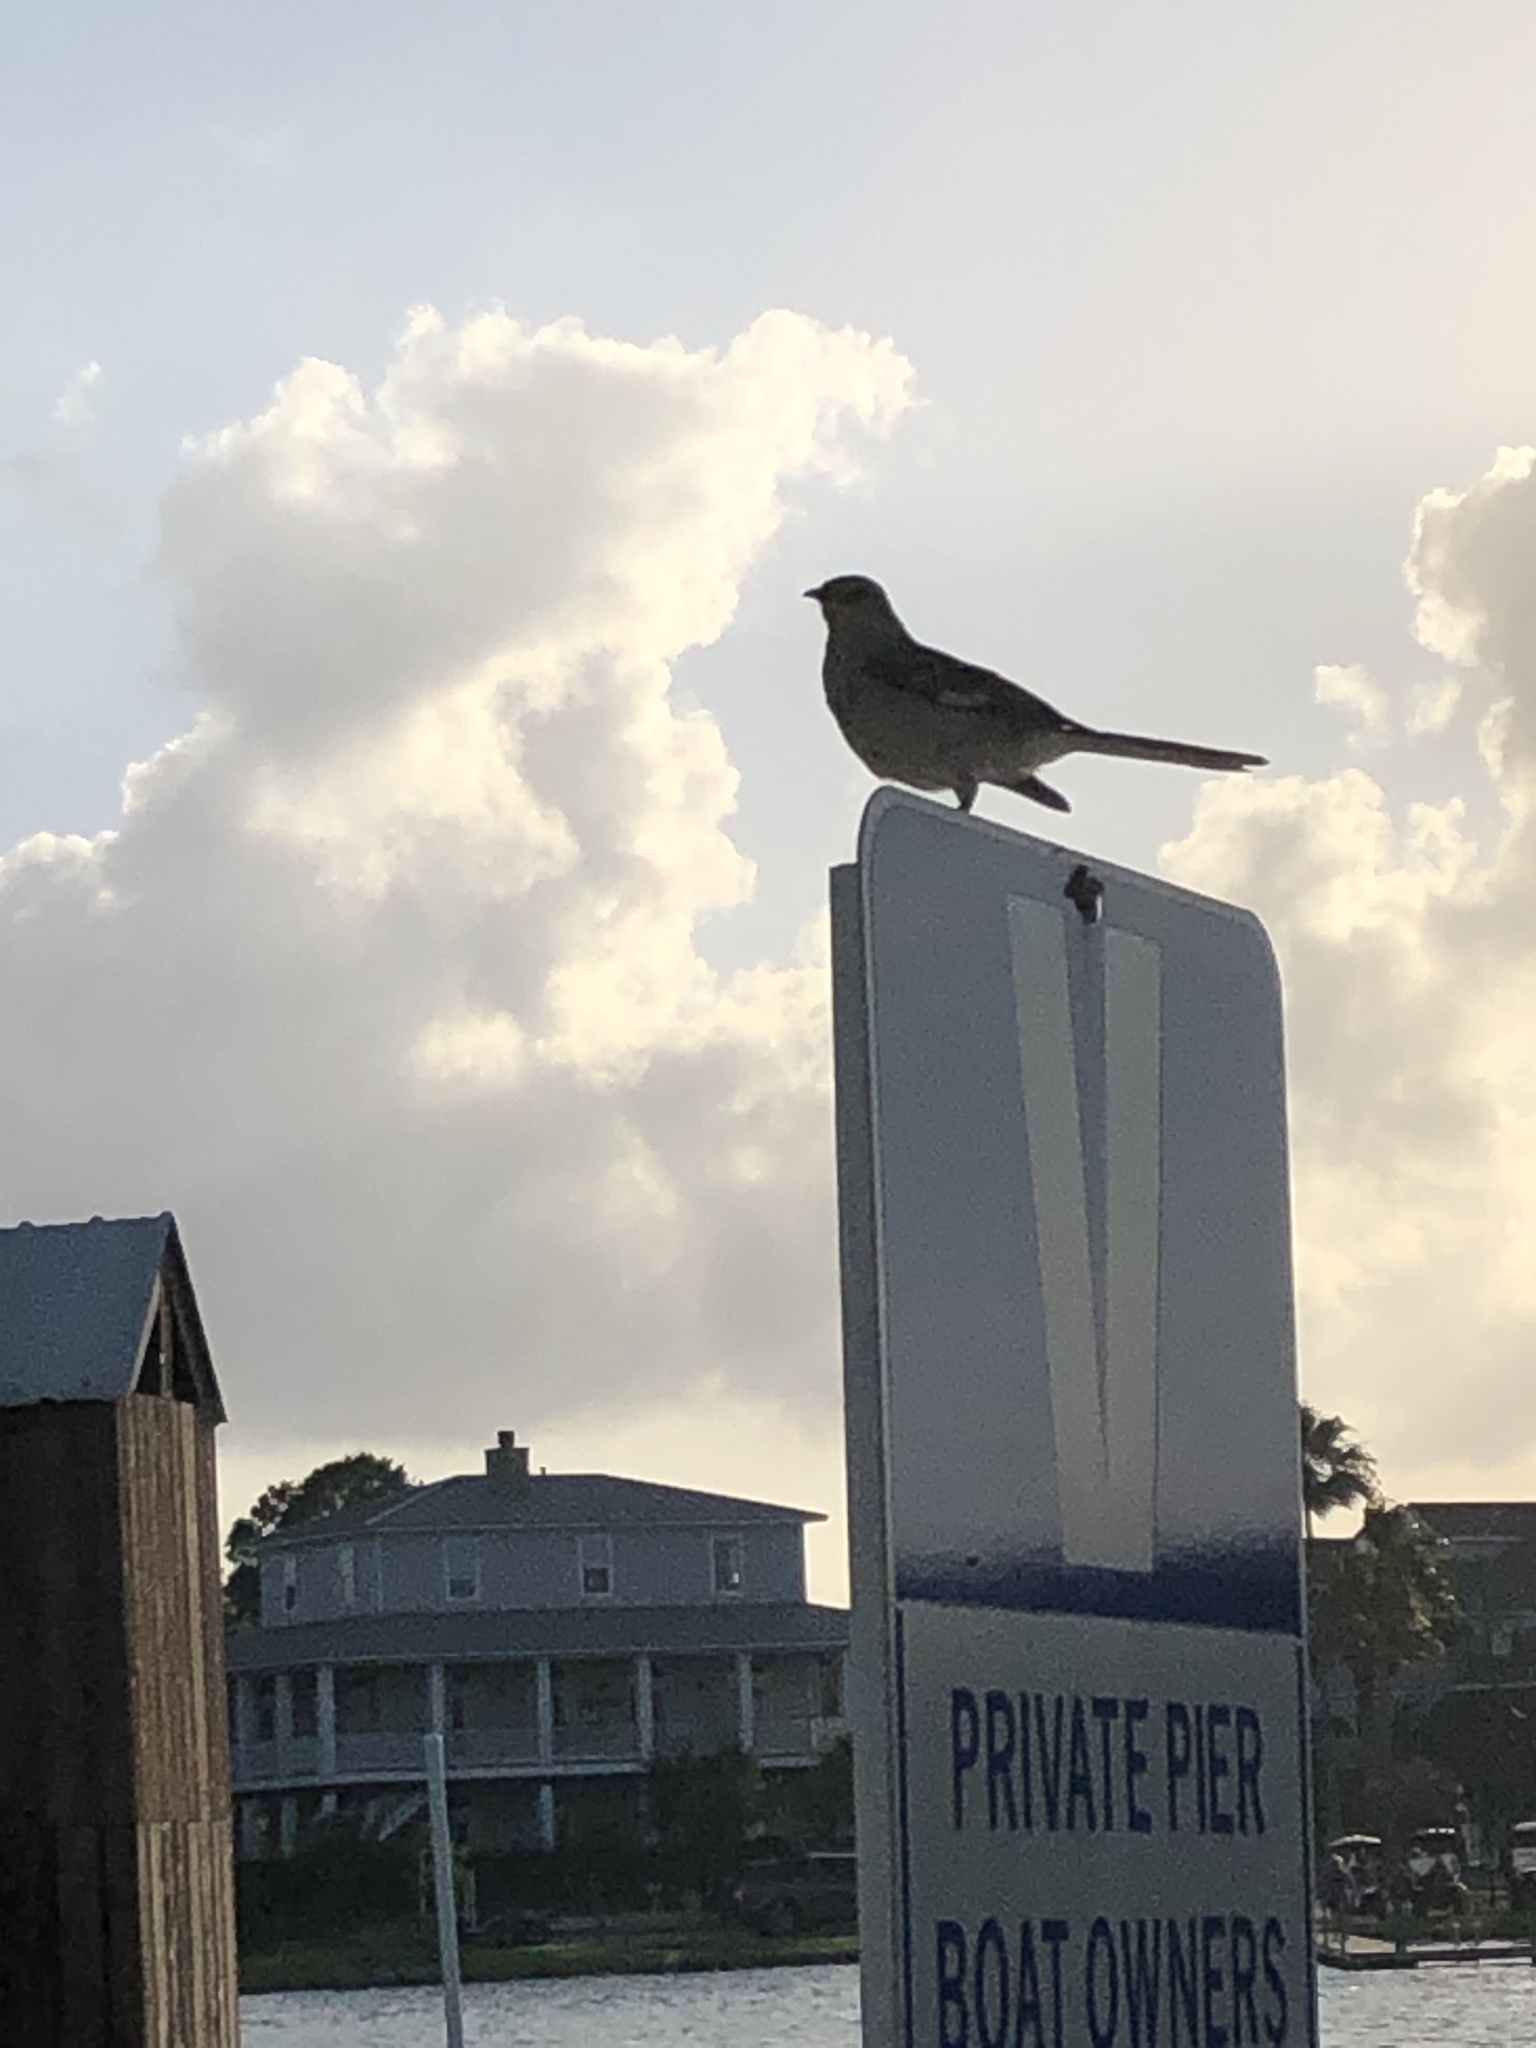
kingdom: Animalia
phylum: Chordata
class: Aves
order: Passeriformes
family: Mimidae
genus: Mimus
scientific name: Mimus polyglottos
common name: Northern mockingbird
